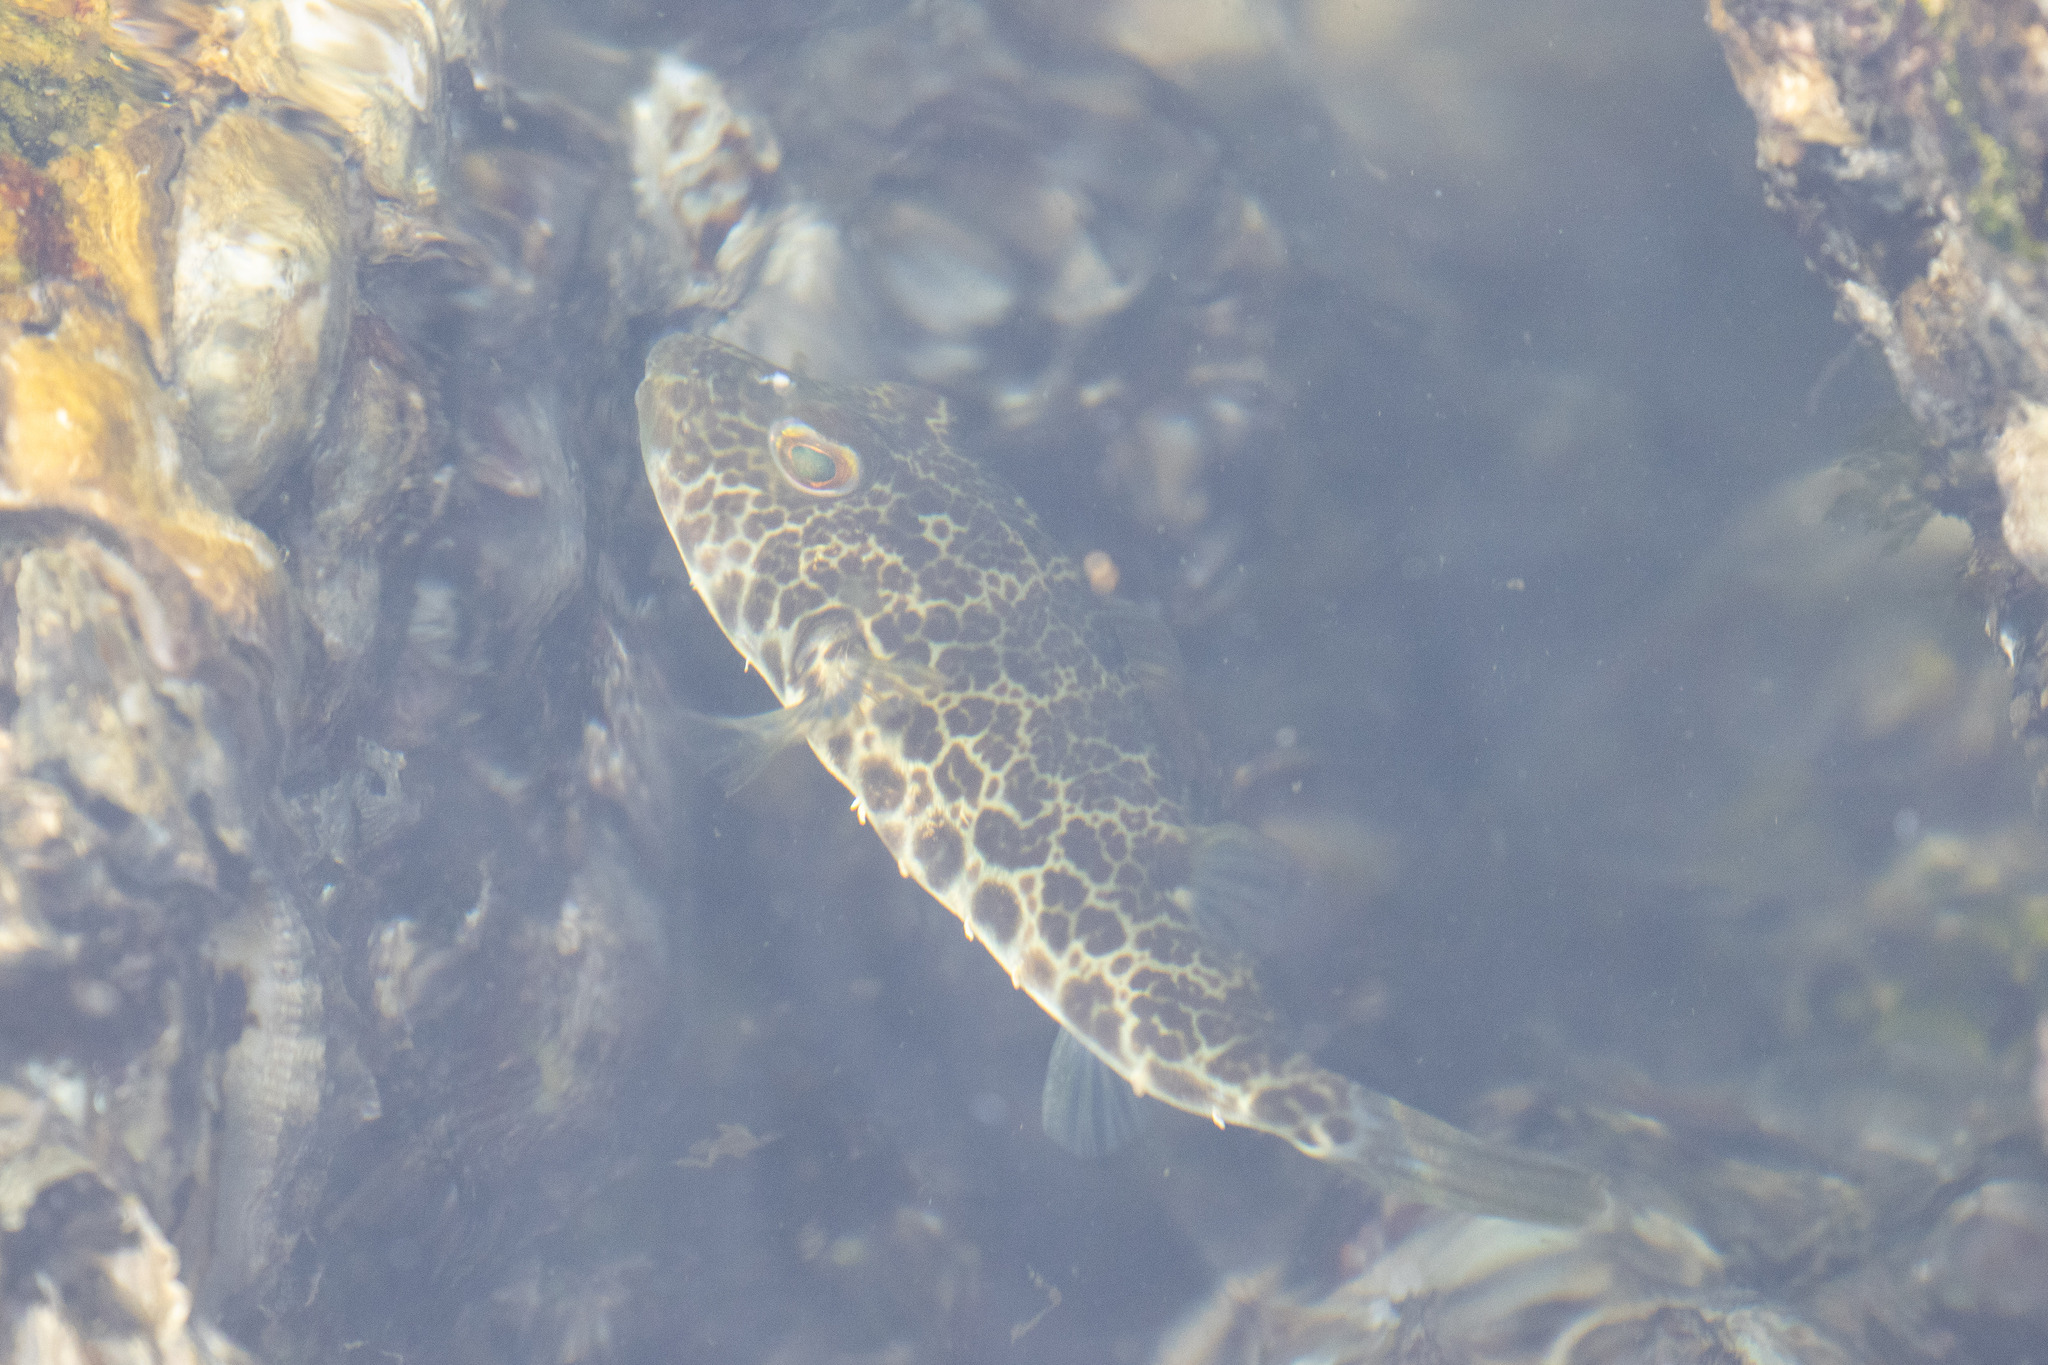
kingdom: Animalia
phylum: Chordata
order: Tetraodontiformes
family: Tetraodontidae
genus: Sphoeroides
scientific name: Sphoeroides greeleyi
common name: Green puffer
